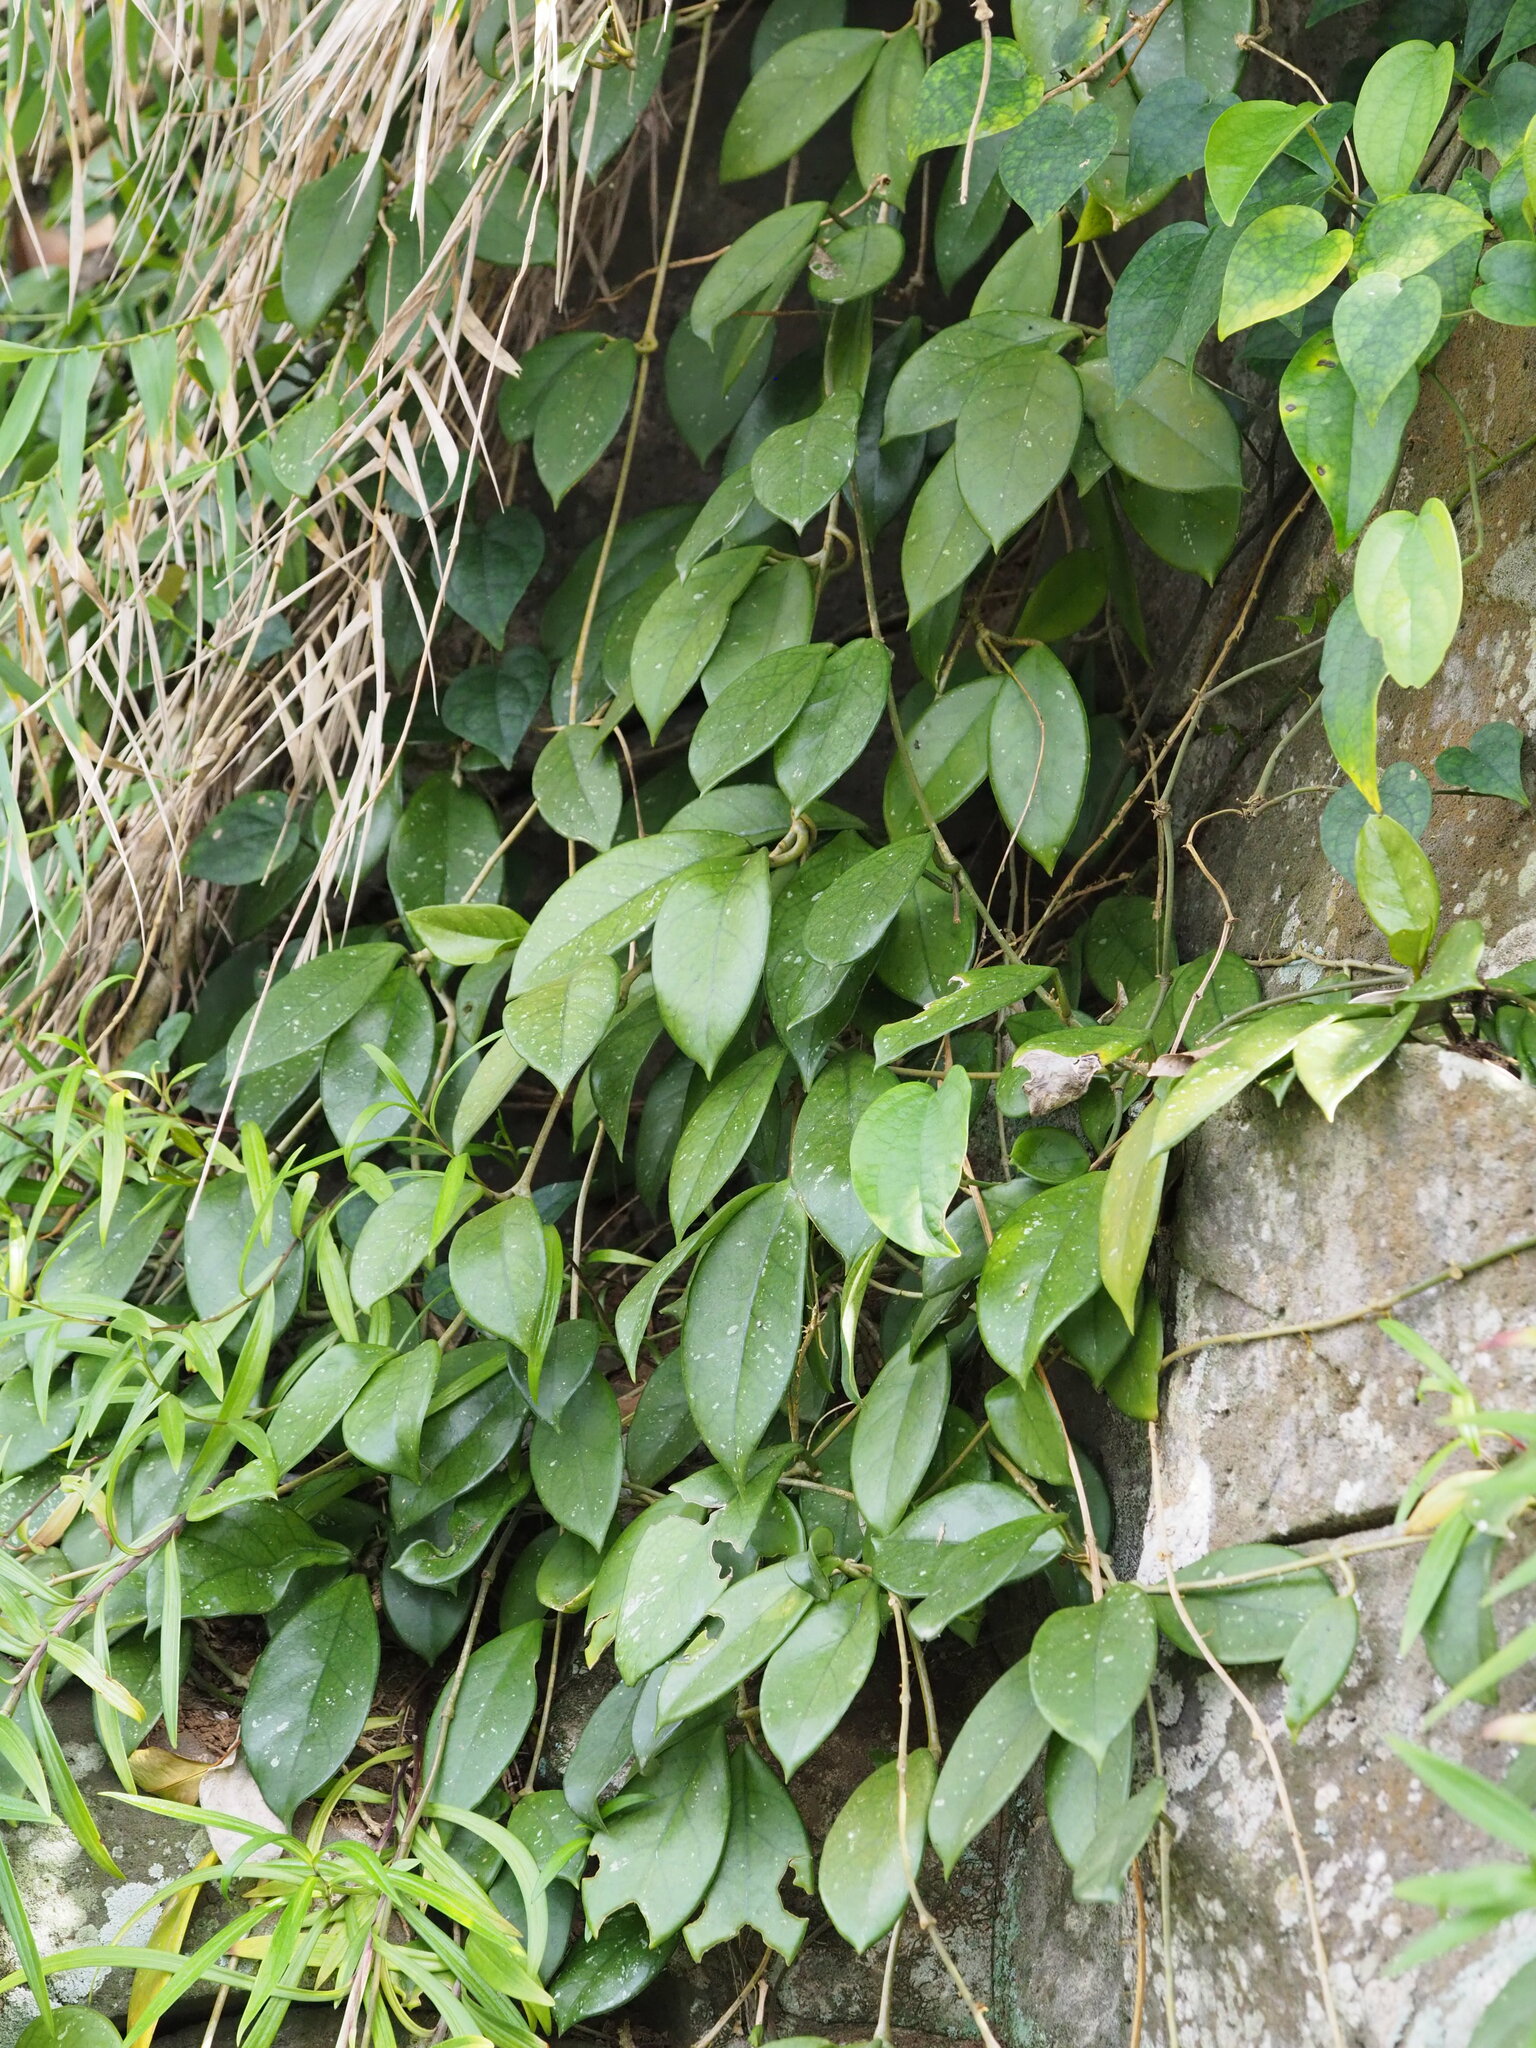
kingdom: Plantae
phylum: Tracheophyta
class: Magnoliopsida
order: Gentianales
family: Apocynaceae
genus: Hoya
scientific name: Hoya carnosa
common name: Honeyplant
